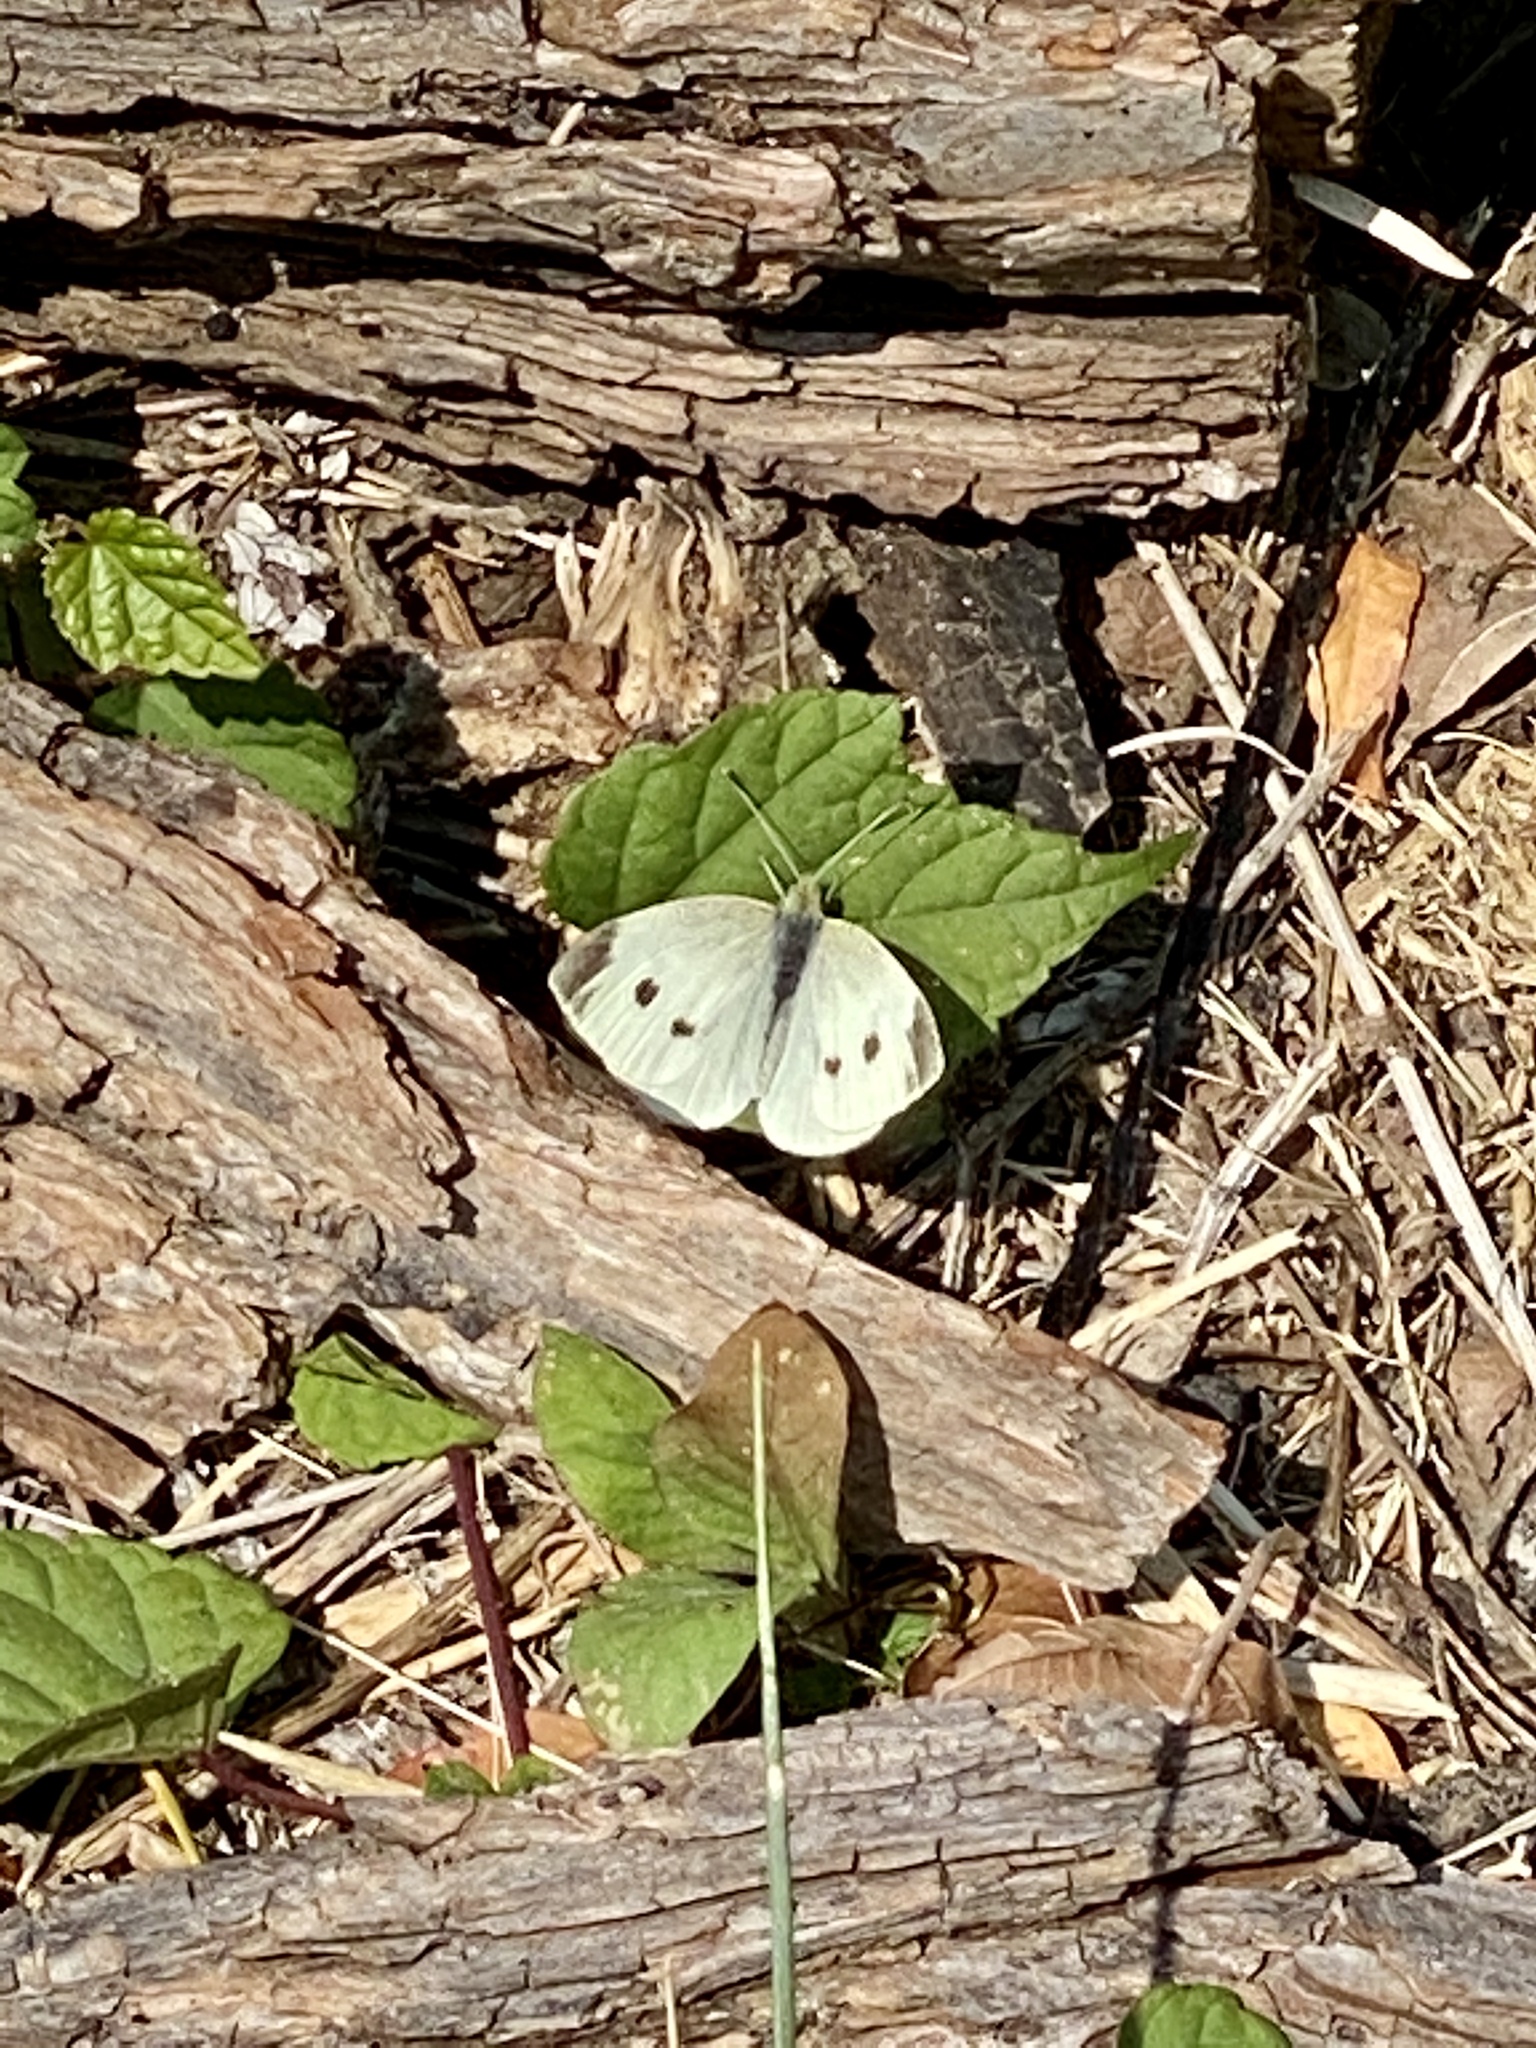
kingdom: Animalia
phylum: Arthropoda
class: Insecta
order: Lepidoptera
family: Pieridae
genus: Pieris
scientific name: Pieris rapae
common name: Small white
